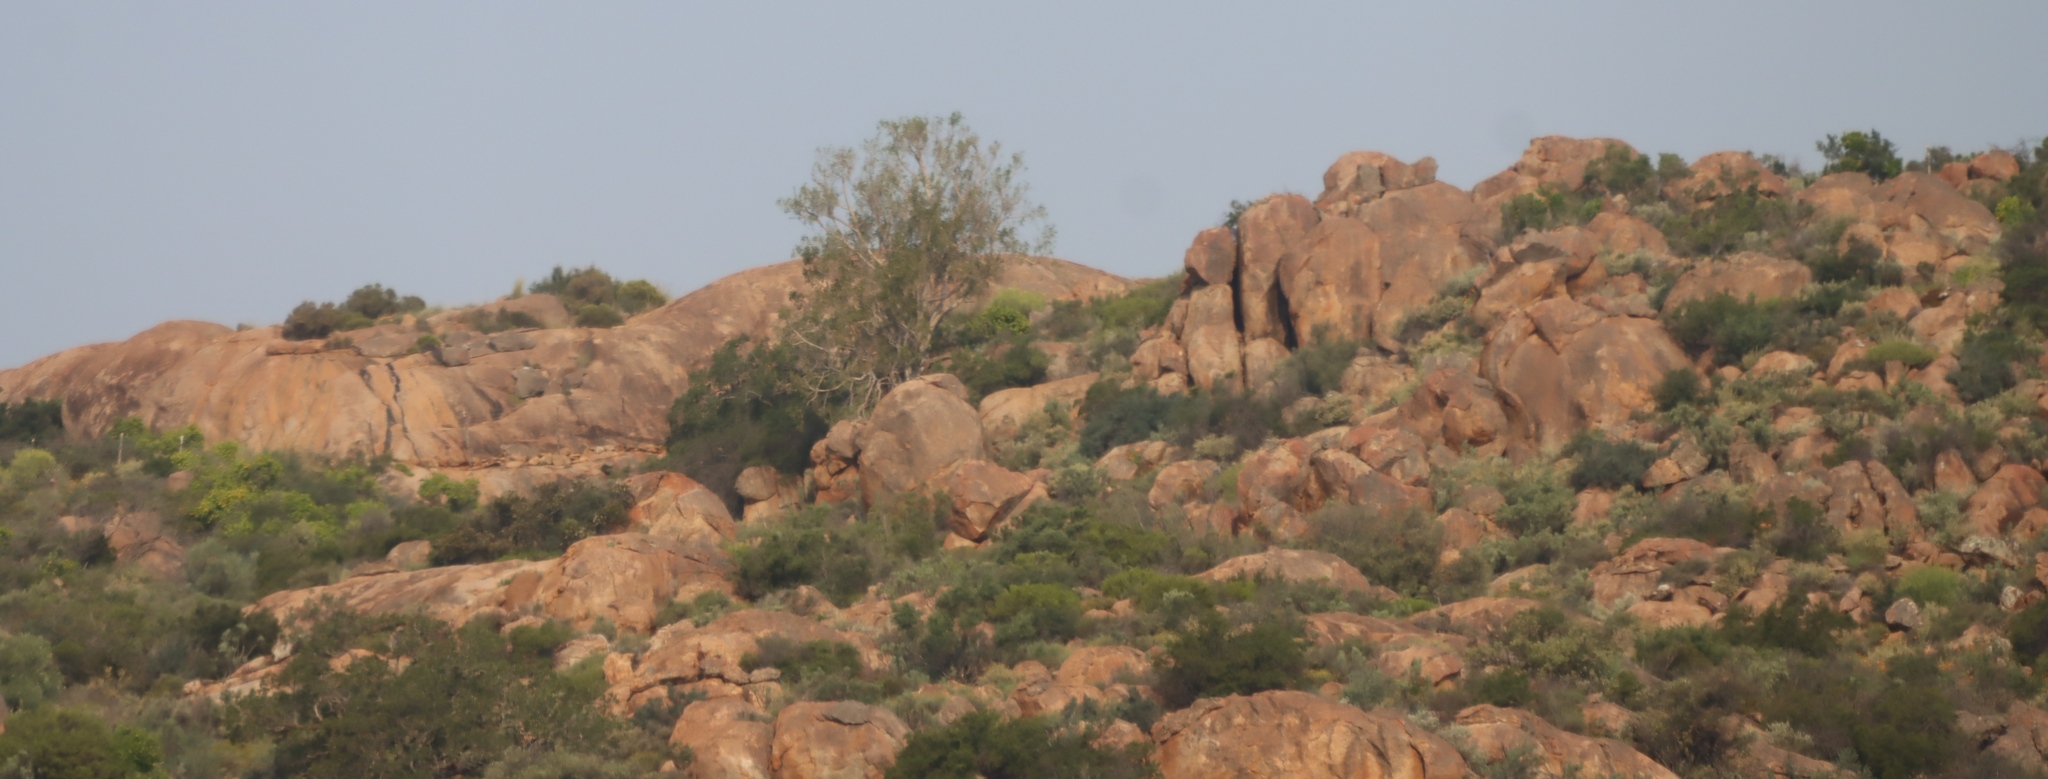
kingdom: Plantae
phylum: Tracheophyta
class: Magnoliopsida
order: Rosales
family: Moraceae
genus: Ficus
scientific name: Ficus cordata
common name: Namaqua rock fig
